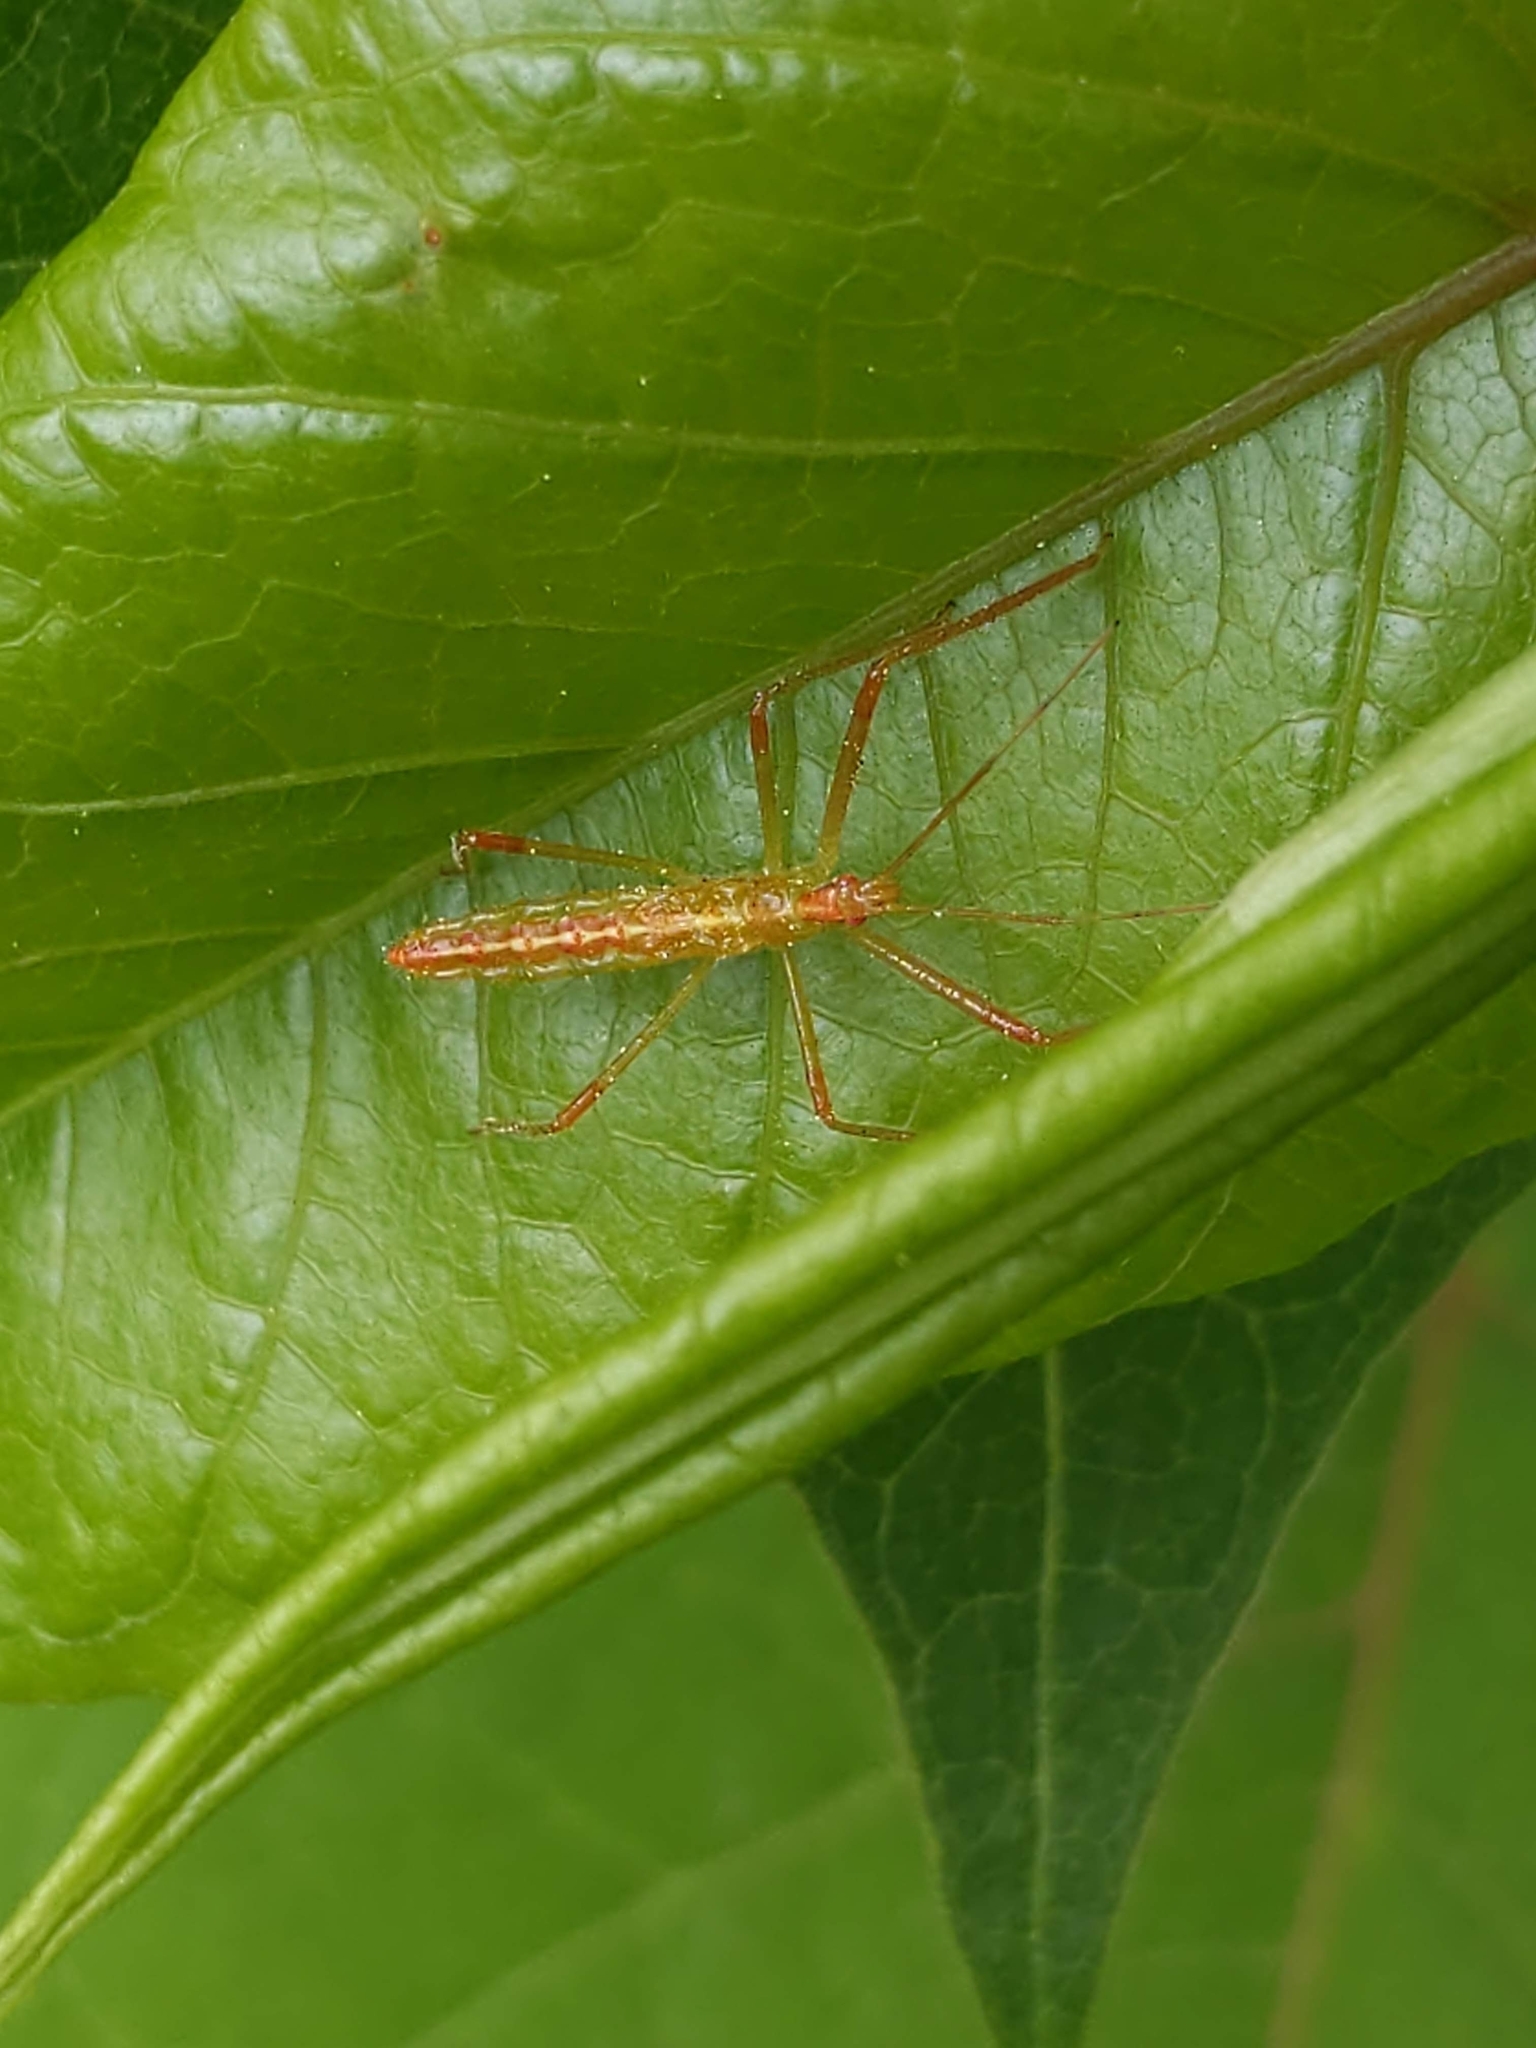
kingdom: Animalia
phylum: Arthropoda
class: Insecta
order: Hemiptera
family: Reduviidae
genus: Zelus
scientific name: Zelus luridus
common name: Pale green assassin bug
